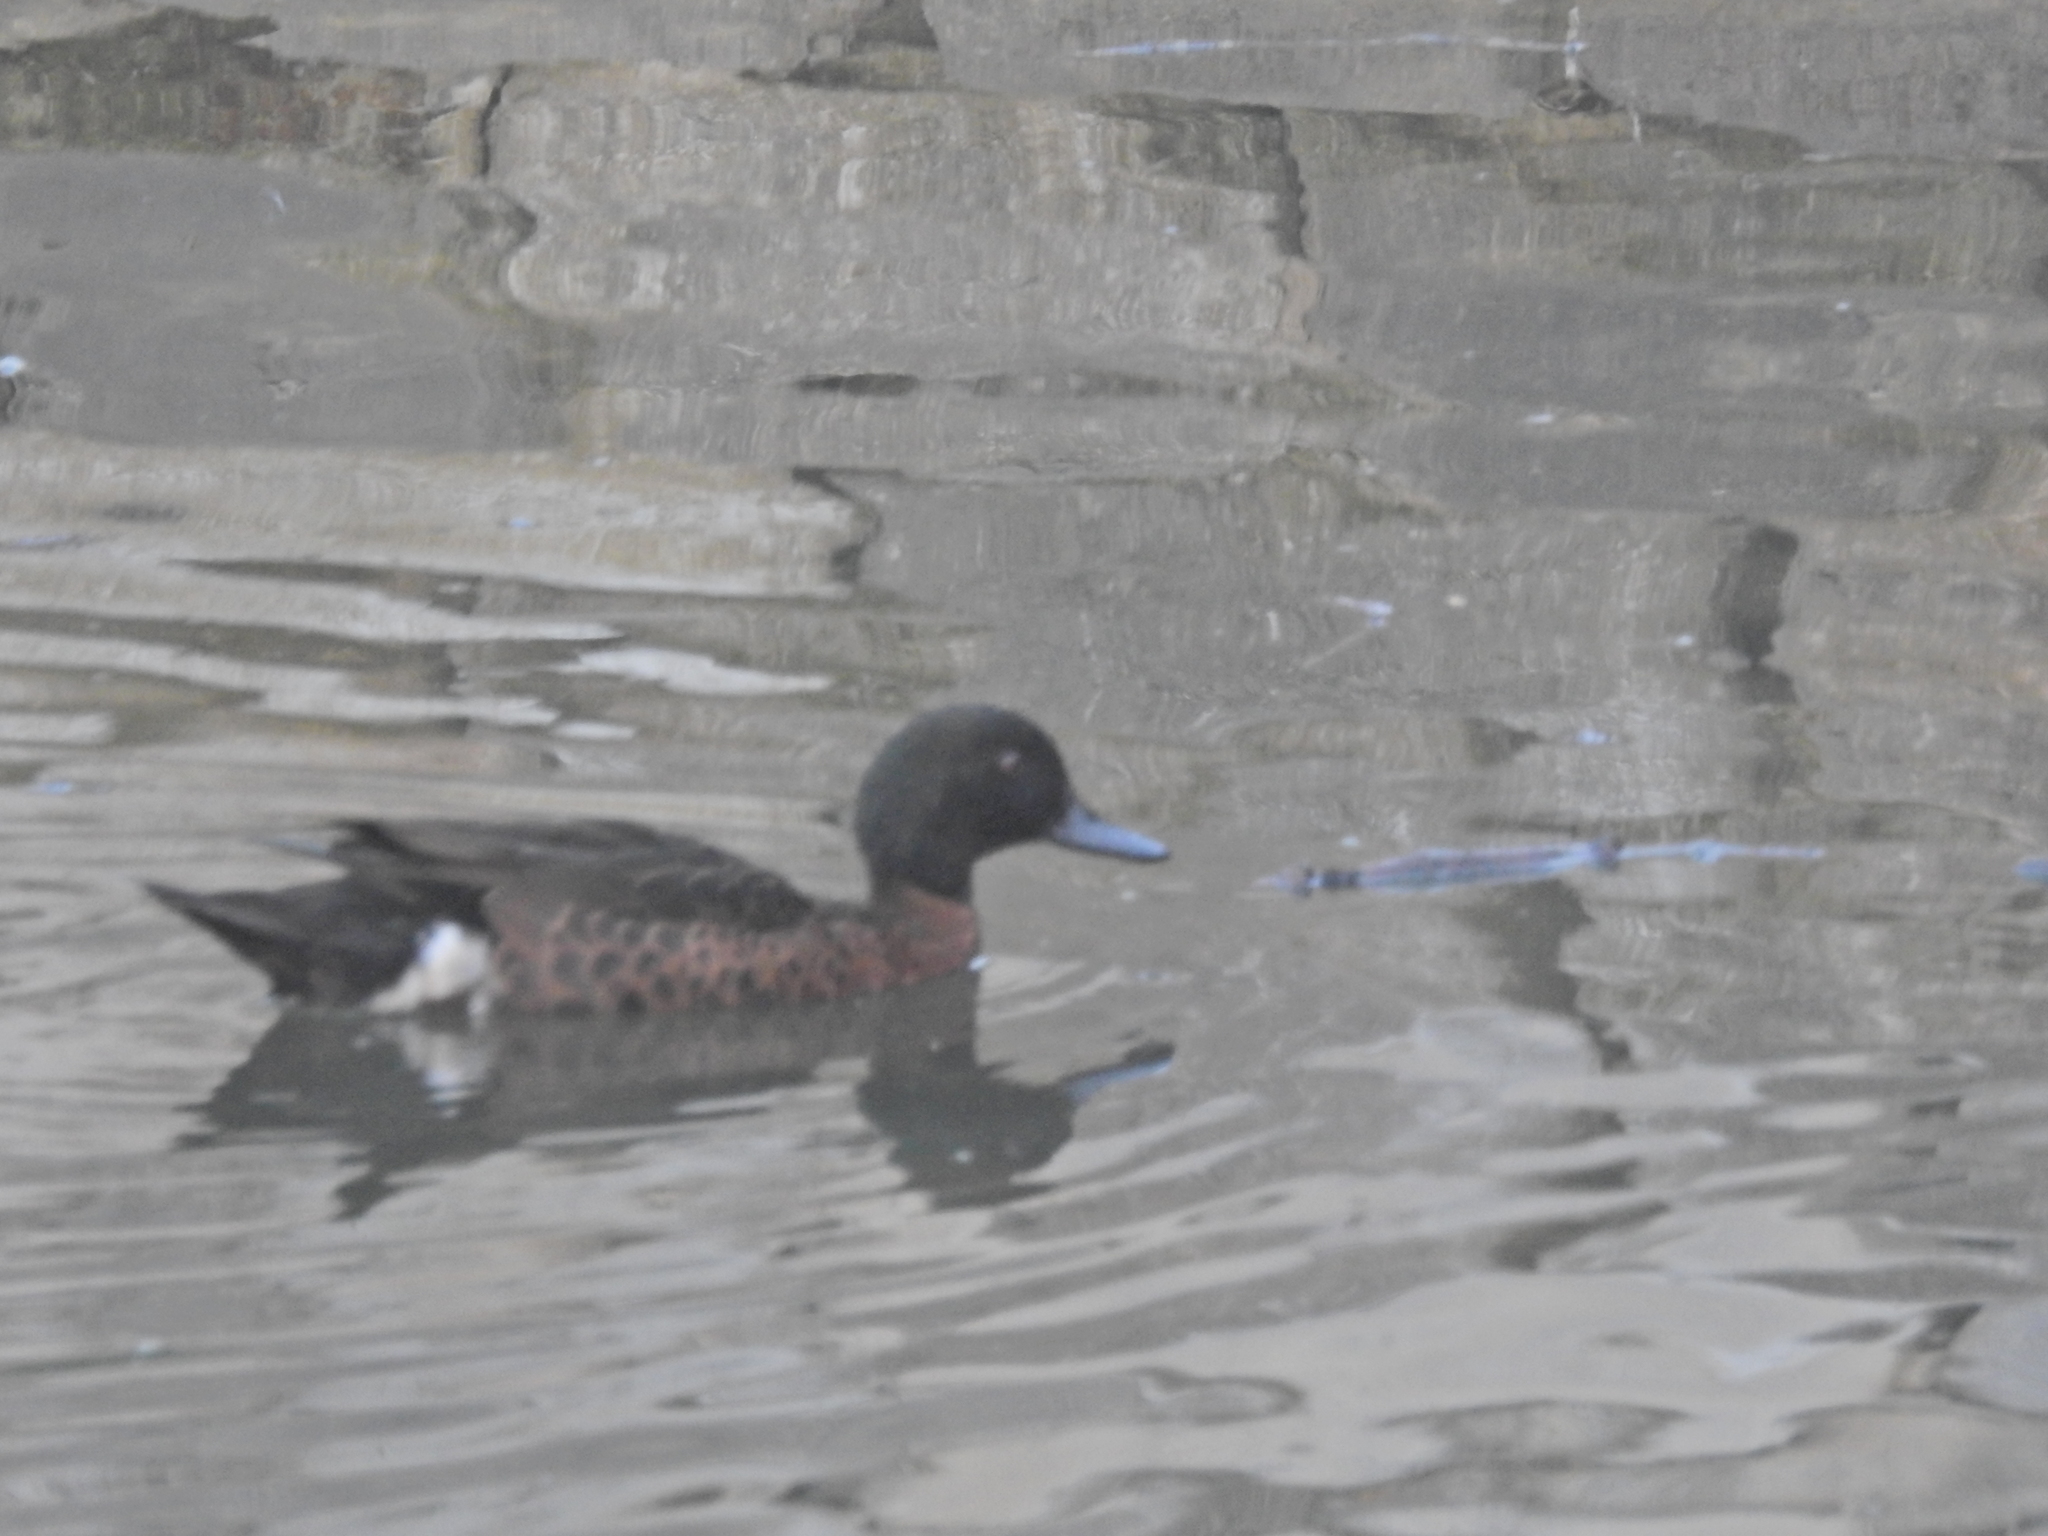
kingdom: Animalia
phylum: Chordata
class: Aves
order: Anseriformes
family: Anatidae
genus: Anas
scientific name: Anas castanea
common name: Chestnut teal
